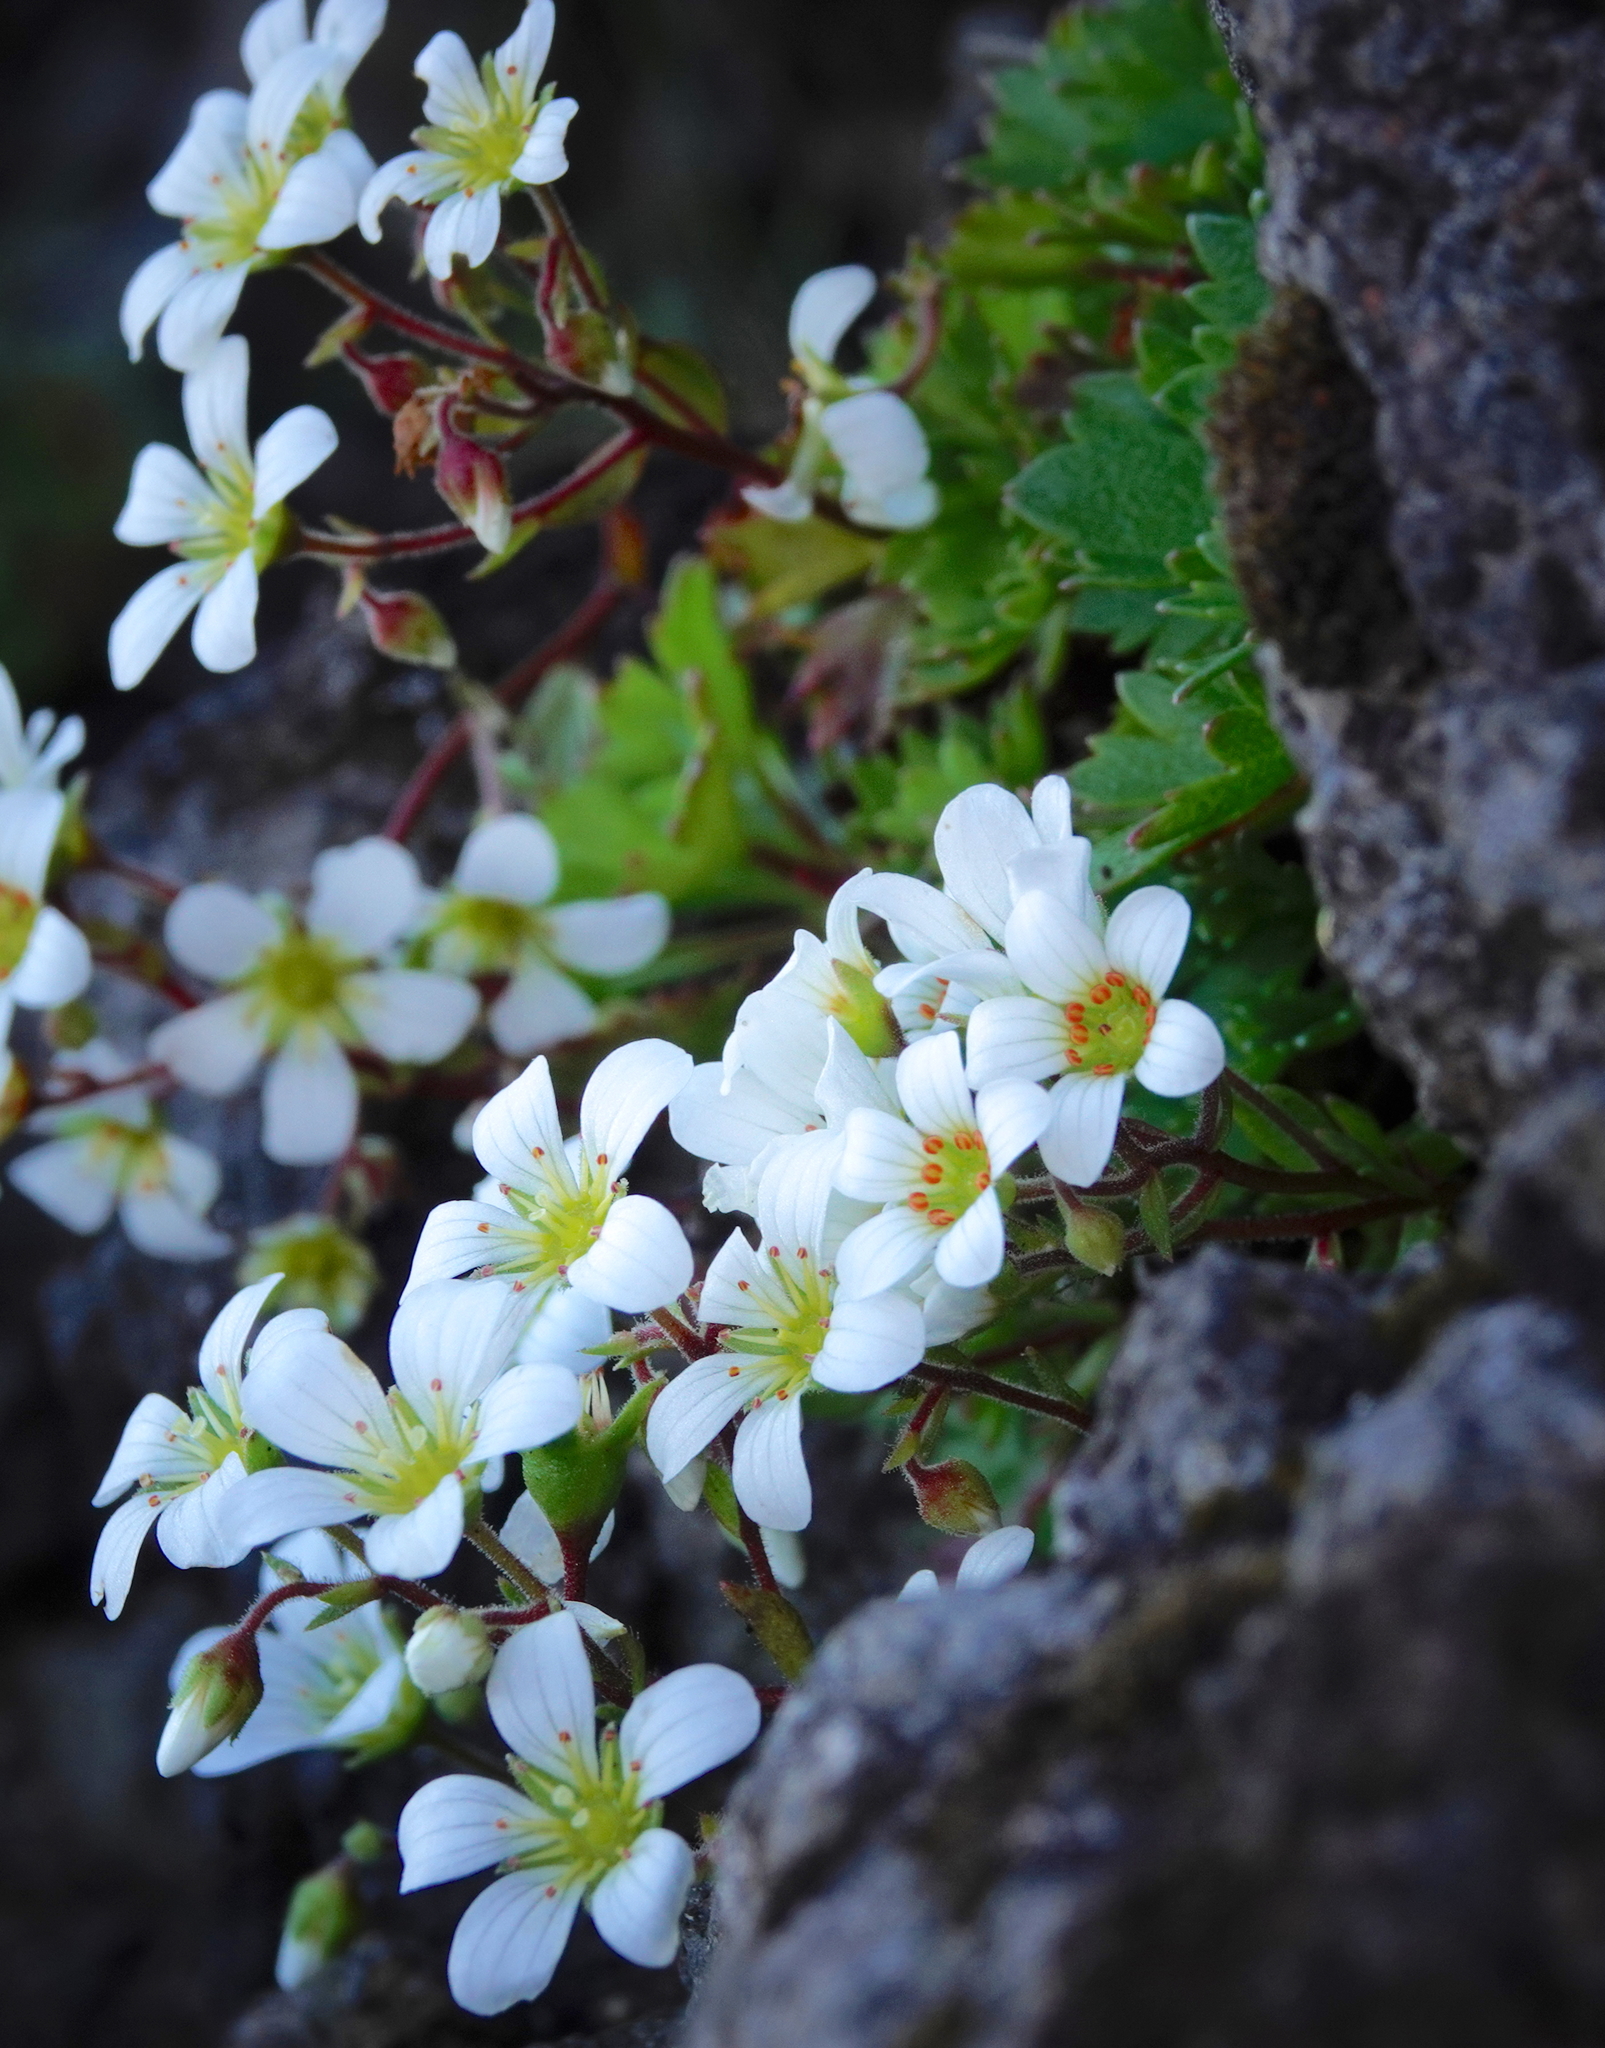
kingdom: Plantae
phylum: Tracheophyta
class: Magnoliopsida
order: Saxifragales
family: Saxifragaceae
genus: Saxifraga
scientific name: Saxifraga maderensis
